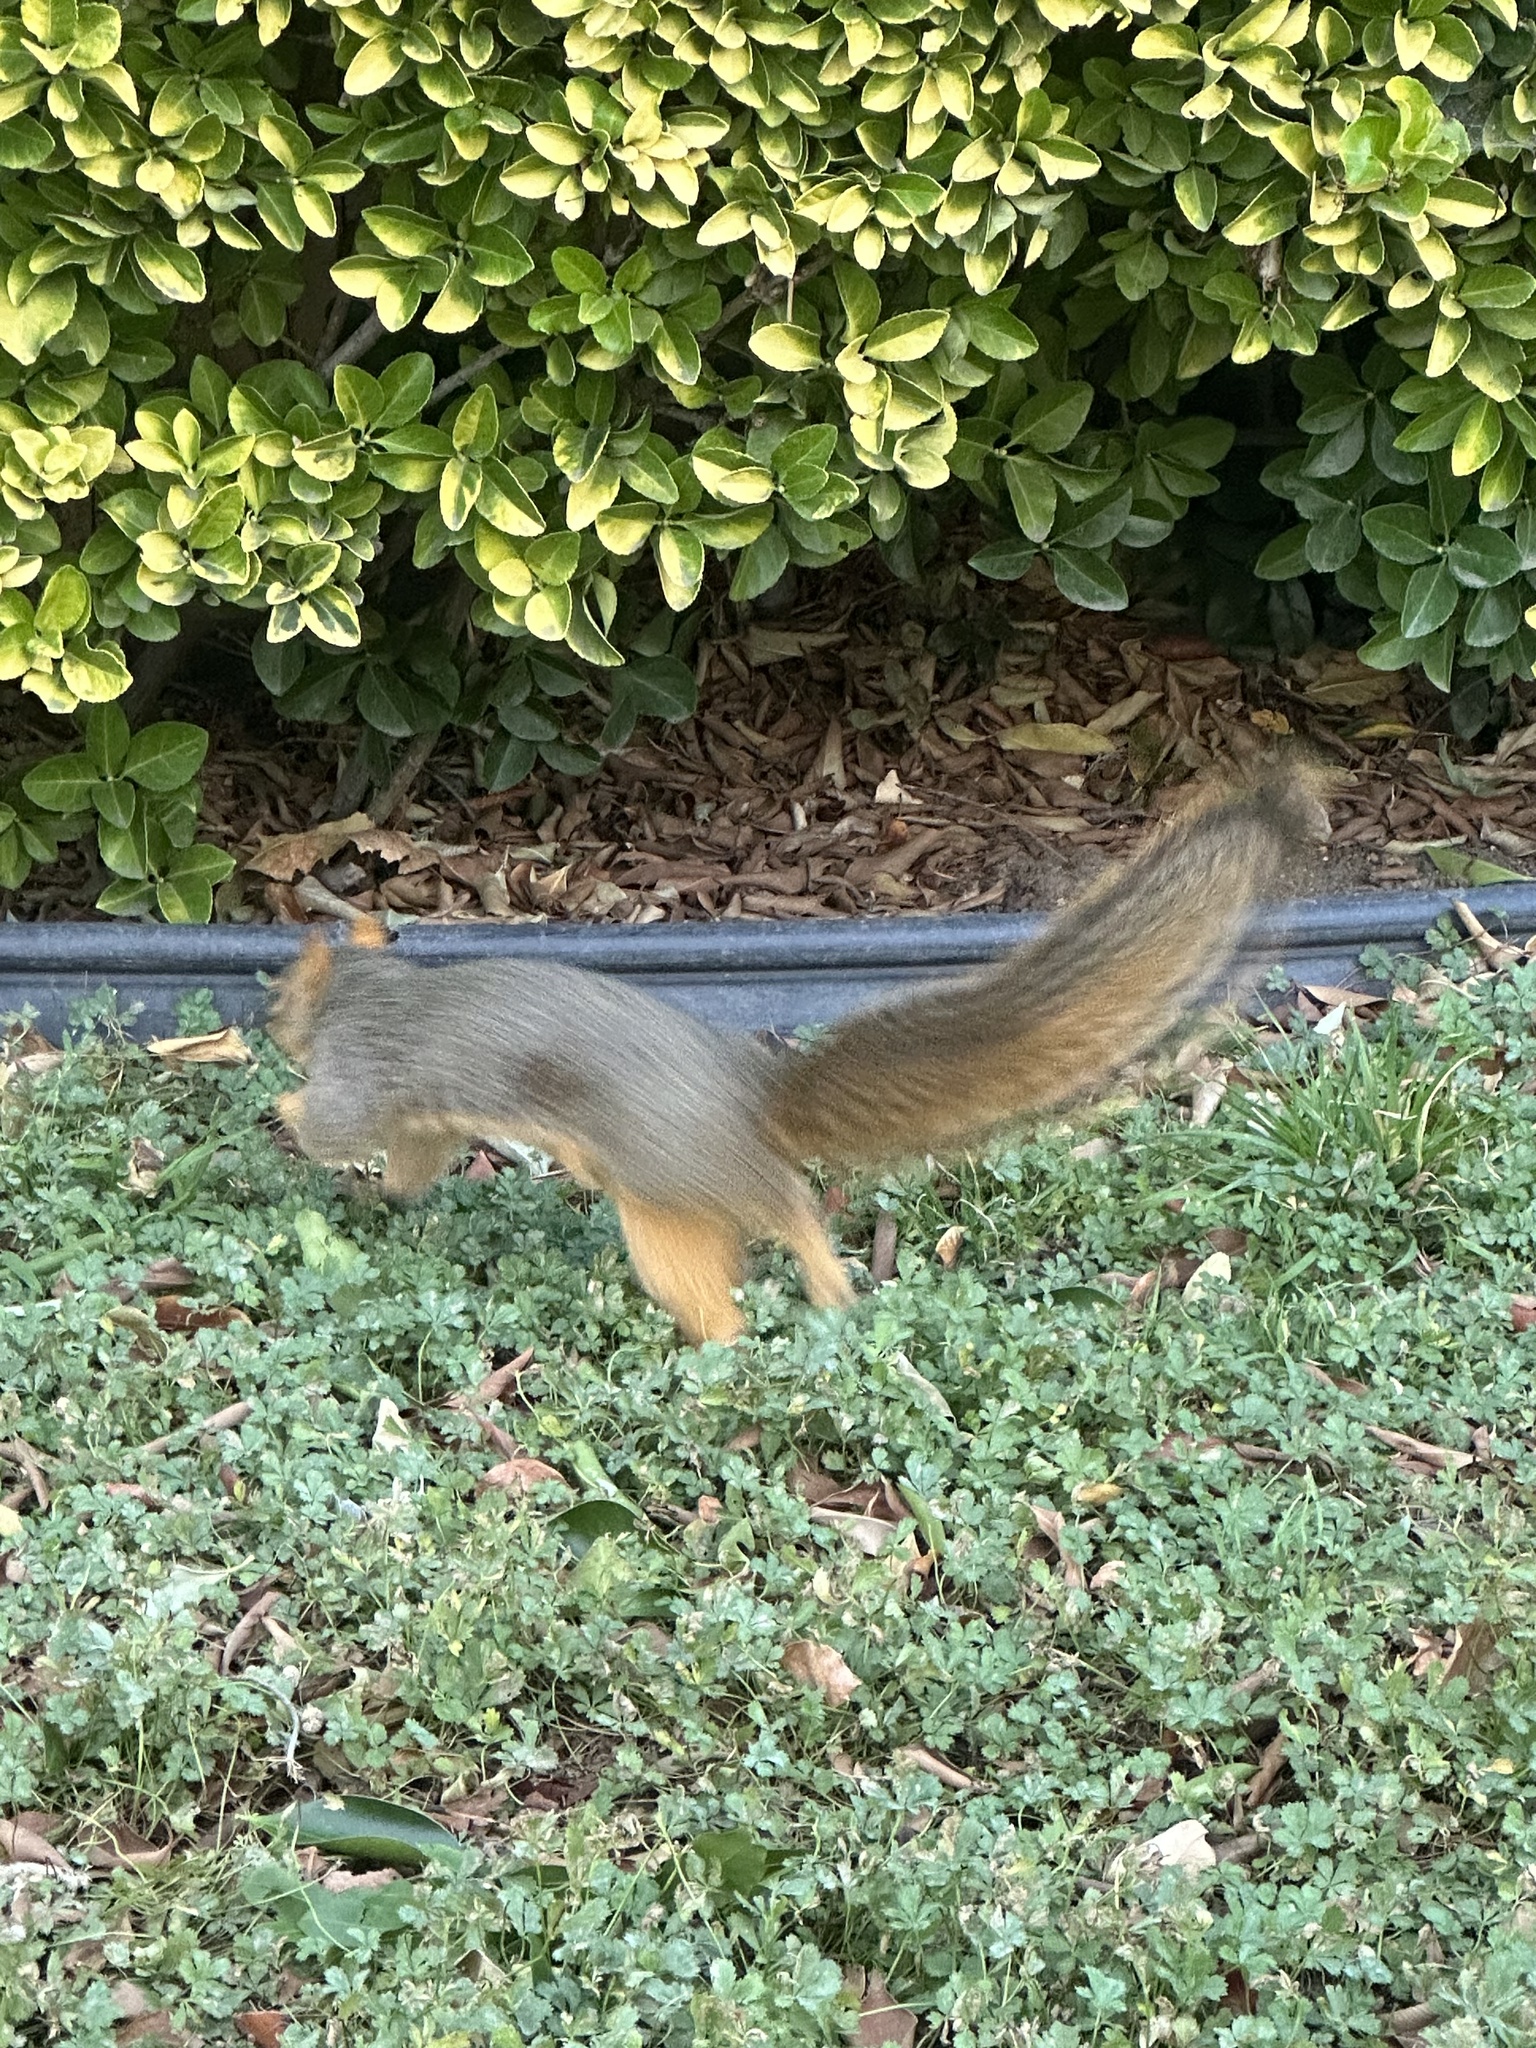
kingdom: Animalia
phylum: Chordata
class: Mammalia
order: Rodentia
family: Sciuridae
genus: Sciurus
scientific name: Sciurus niger
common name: Fox squirrel
